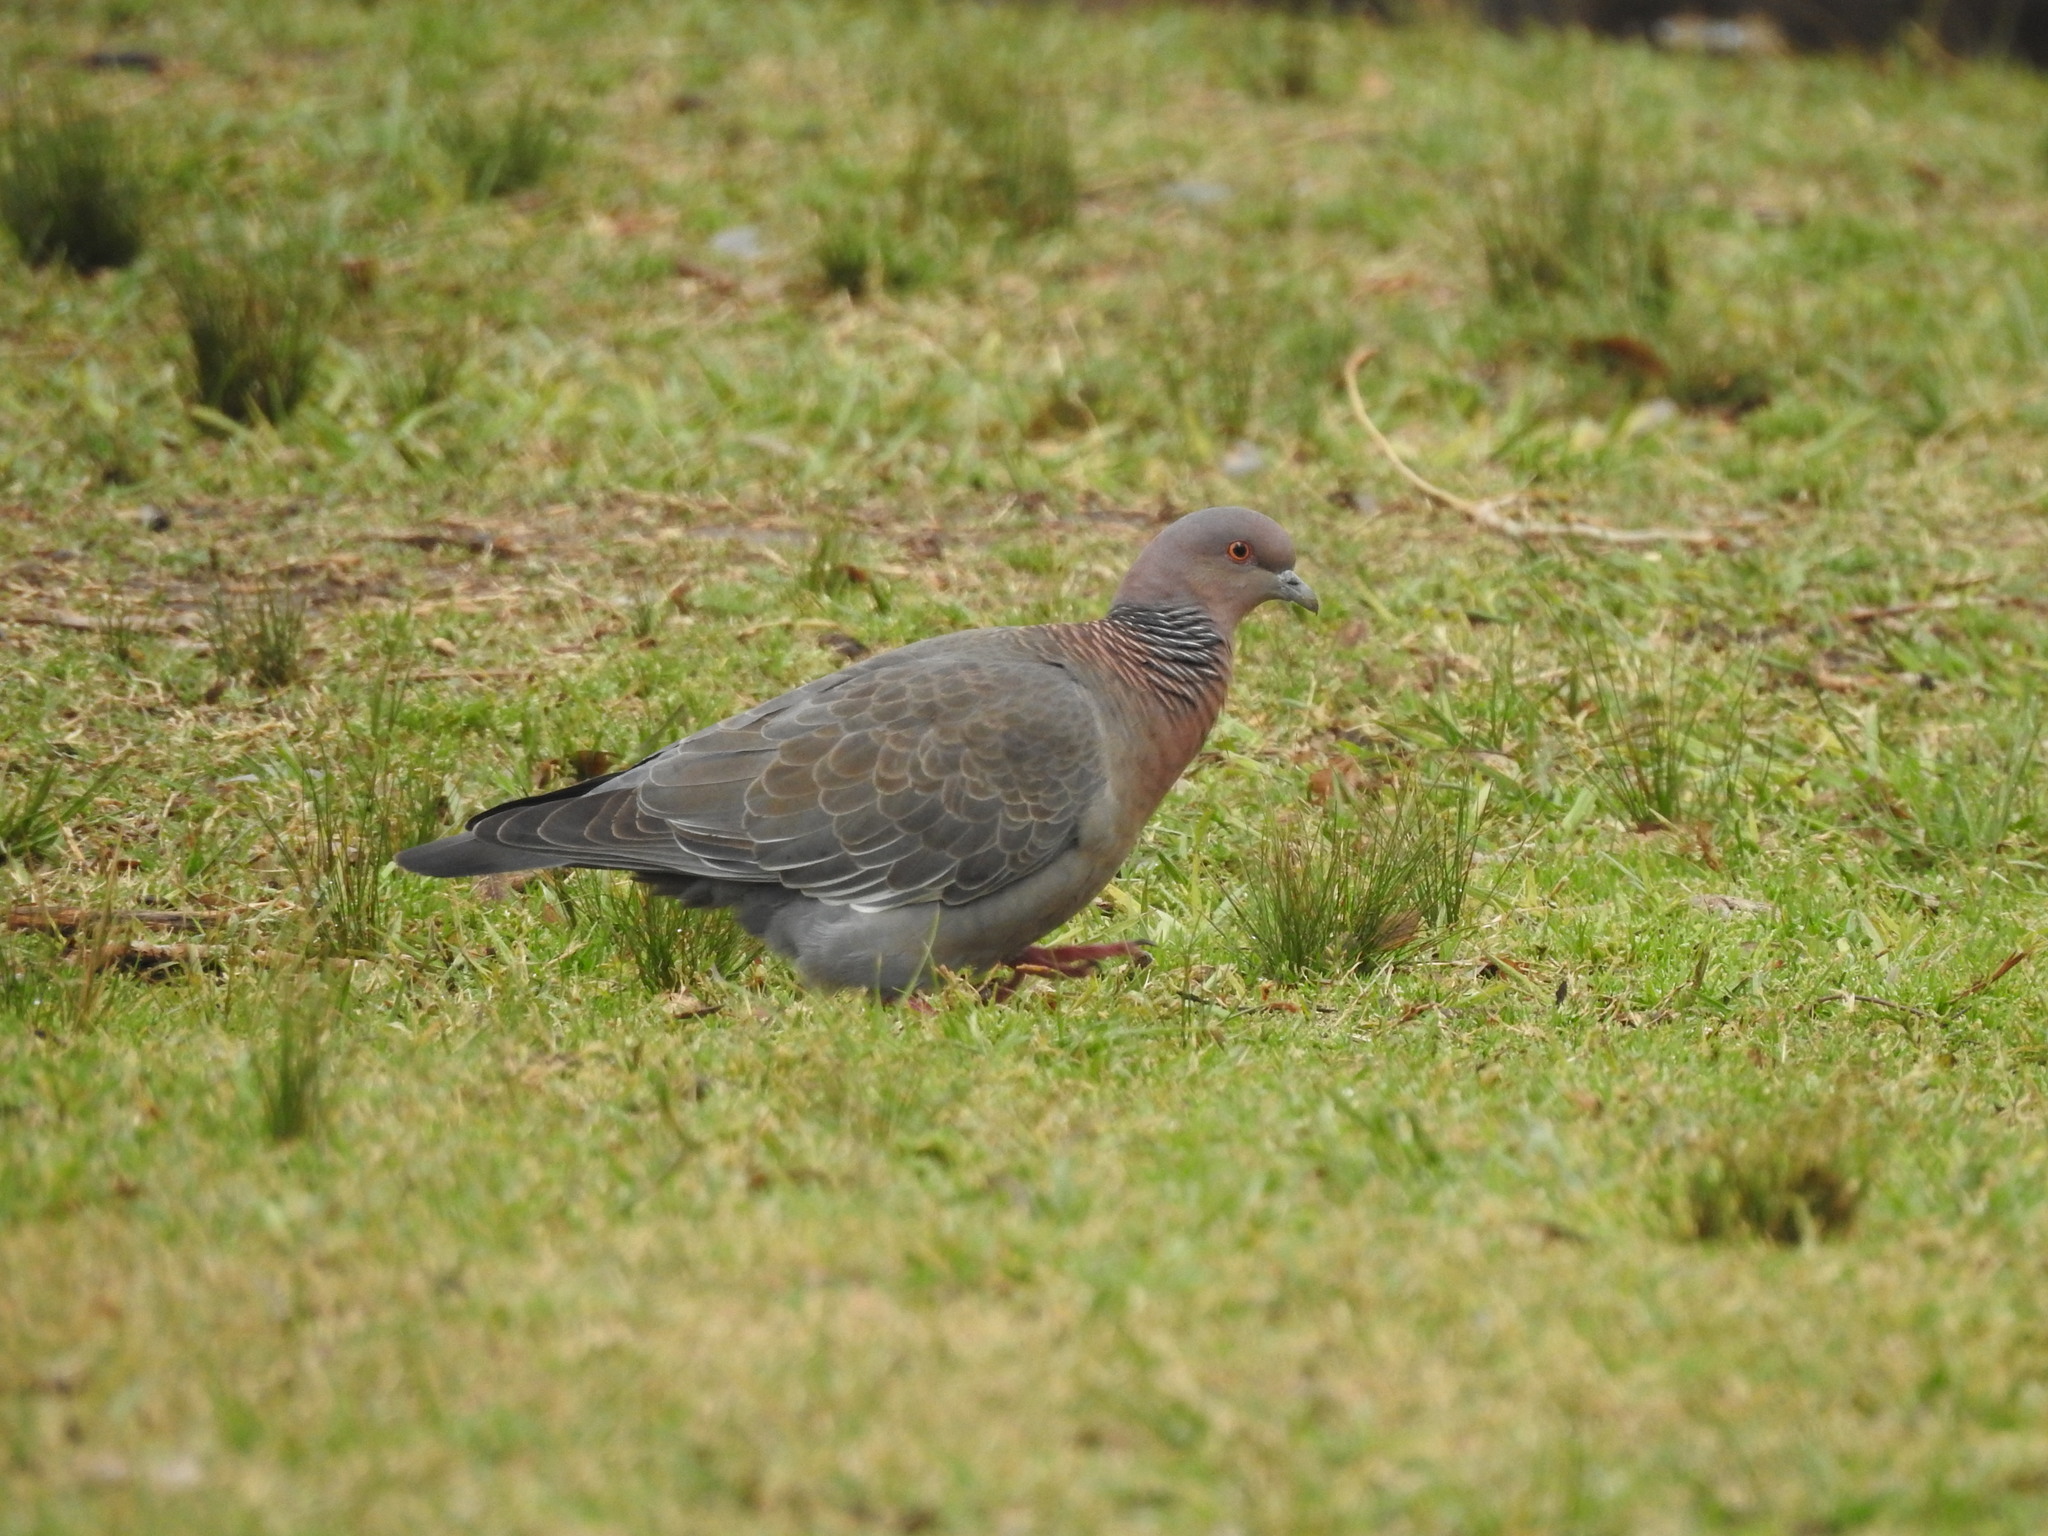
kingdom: Animalia
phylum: Chordata
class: Aves
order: Columbiformes
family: Columbidae
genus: Patagioenas
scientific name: Patagioenas picazuro
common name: Picazuro pigeon
